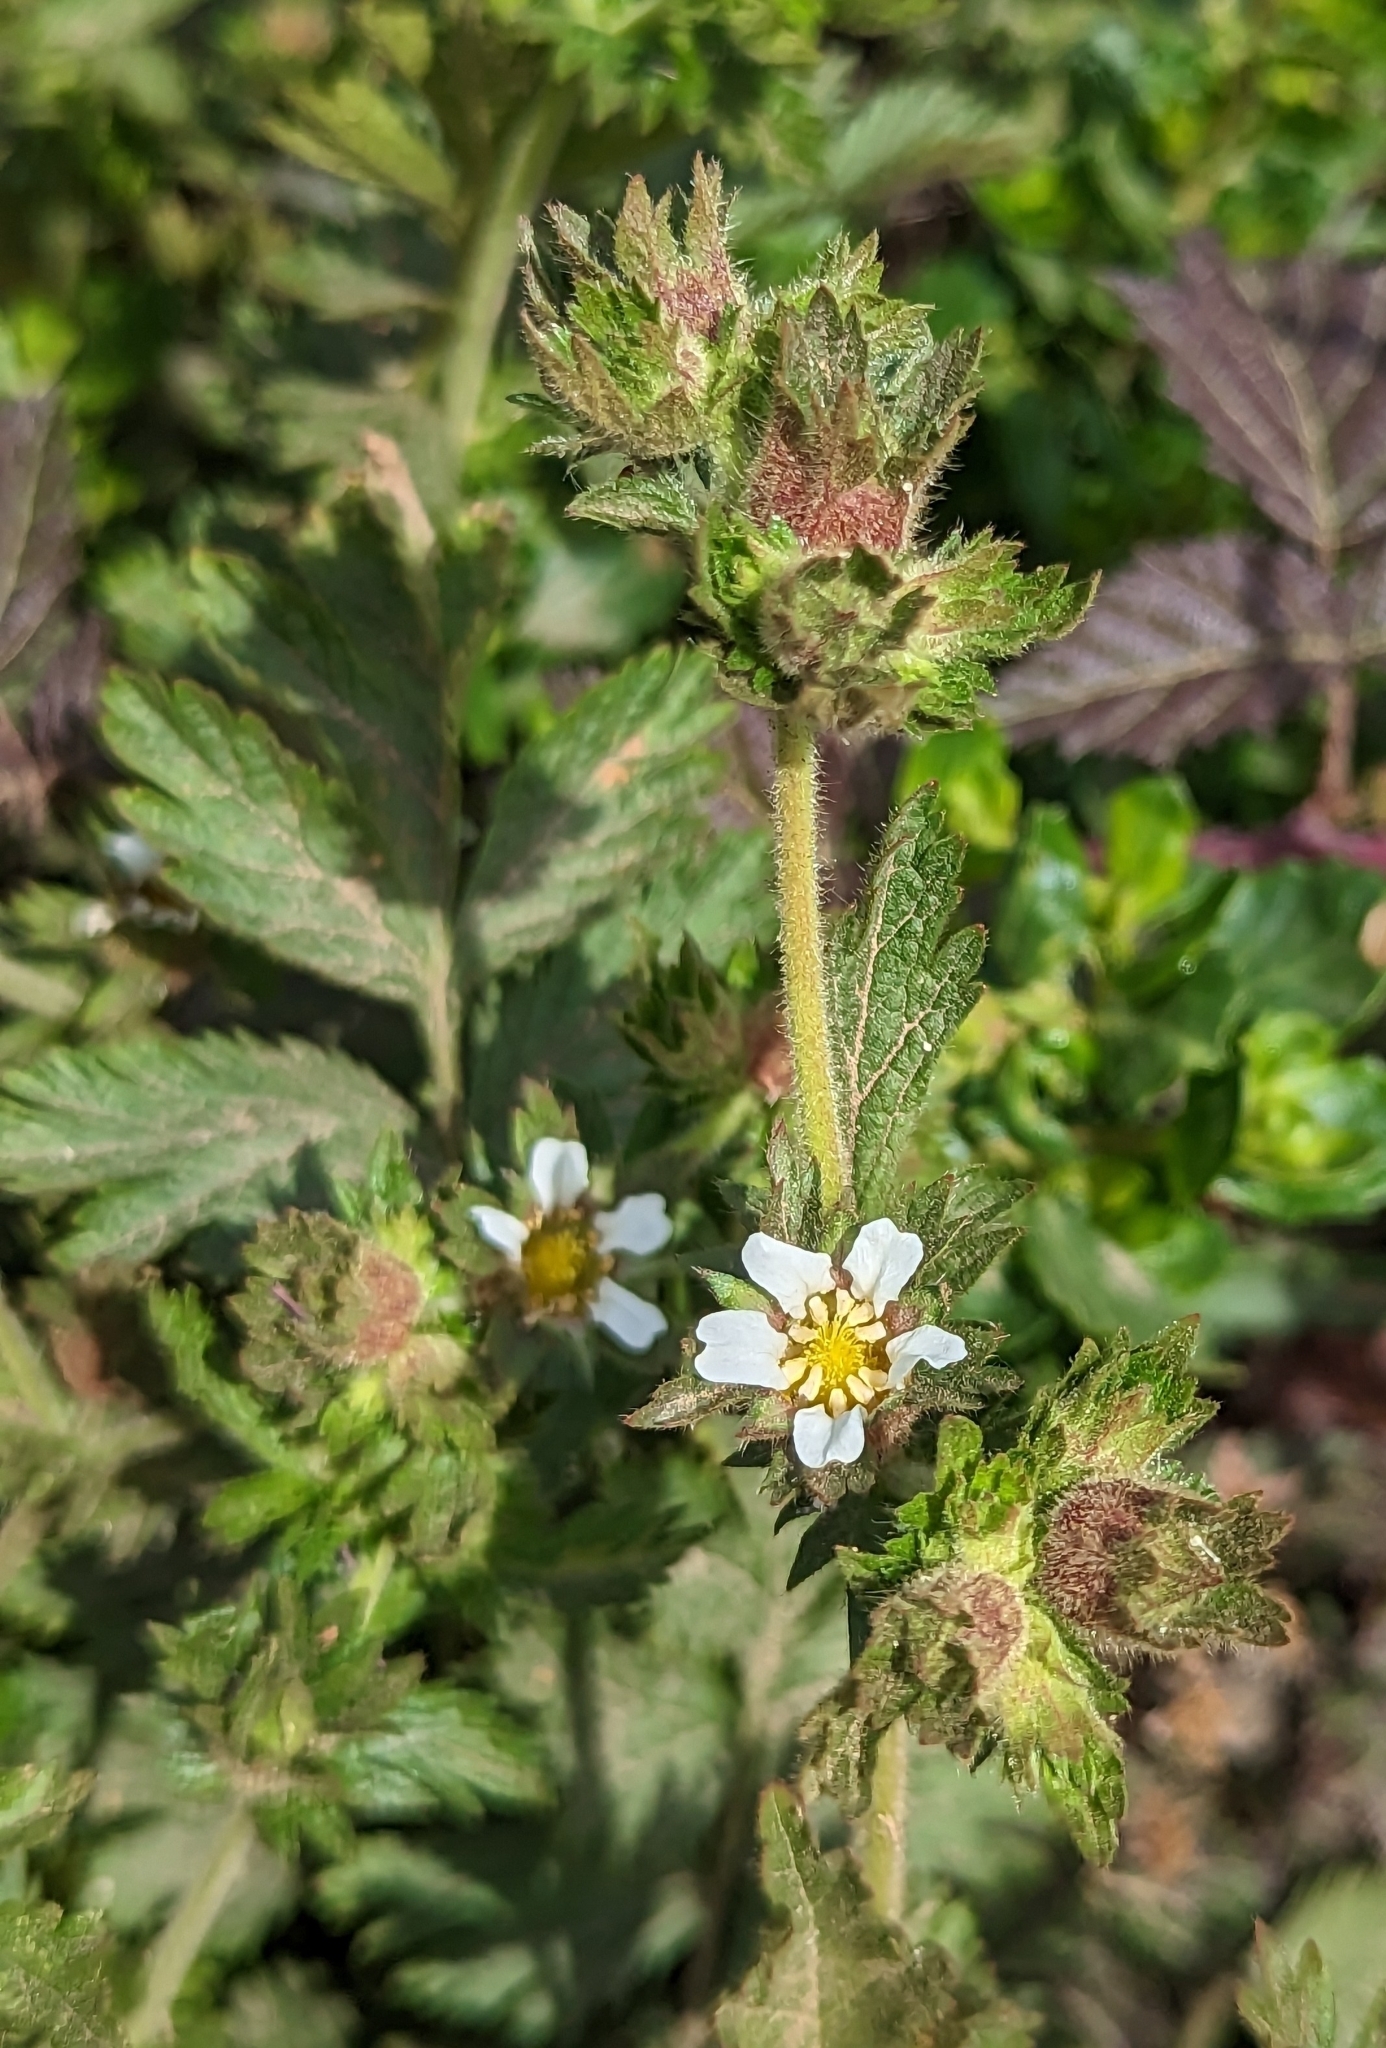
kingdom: Plantae
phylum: Tracheophyta
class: Magnoliopsida
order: Rosales
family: Rosaceae
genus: Potentilla
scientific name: Potentilla californica
